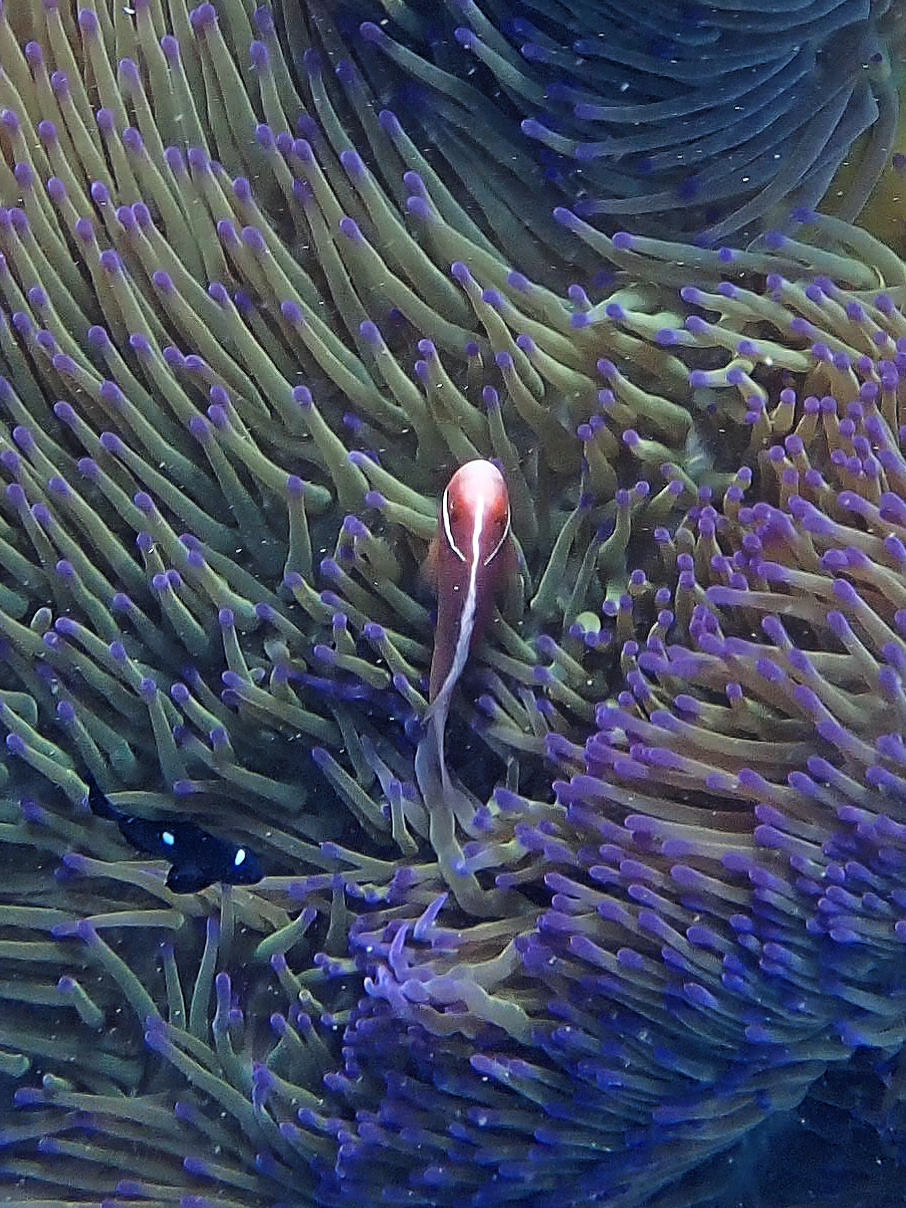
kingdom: Animalia
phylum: Chordata
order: Perciformes
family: Pomacentridae
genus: Amphiprion
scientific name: Amphiprion perideraion
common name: Pink anemonefish
